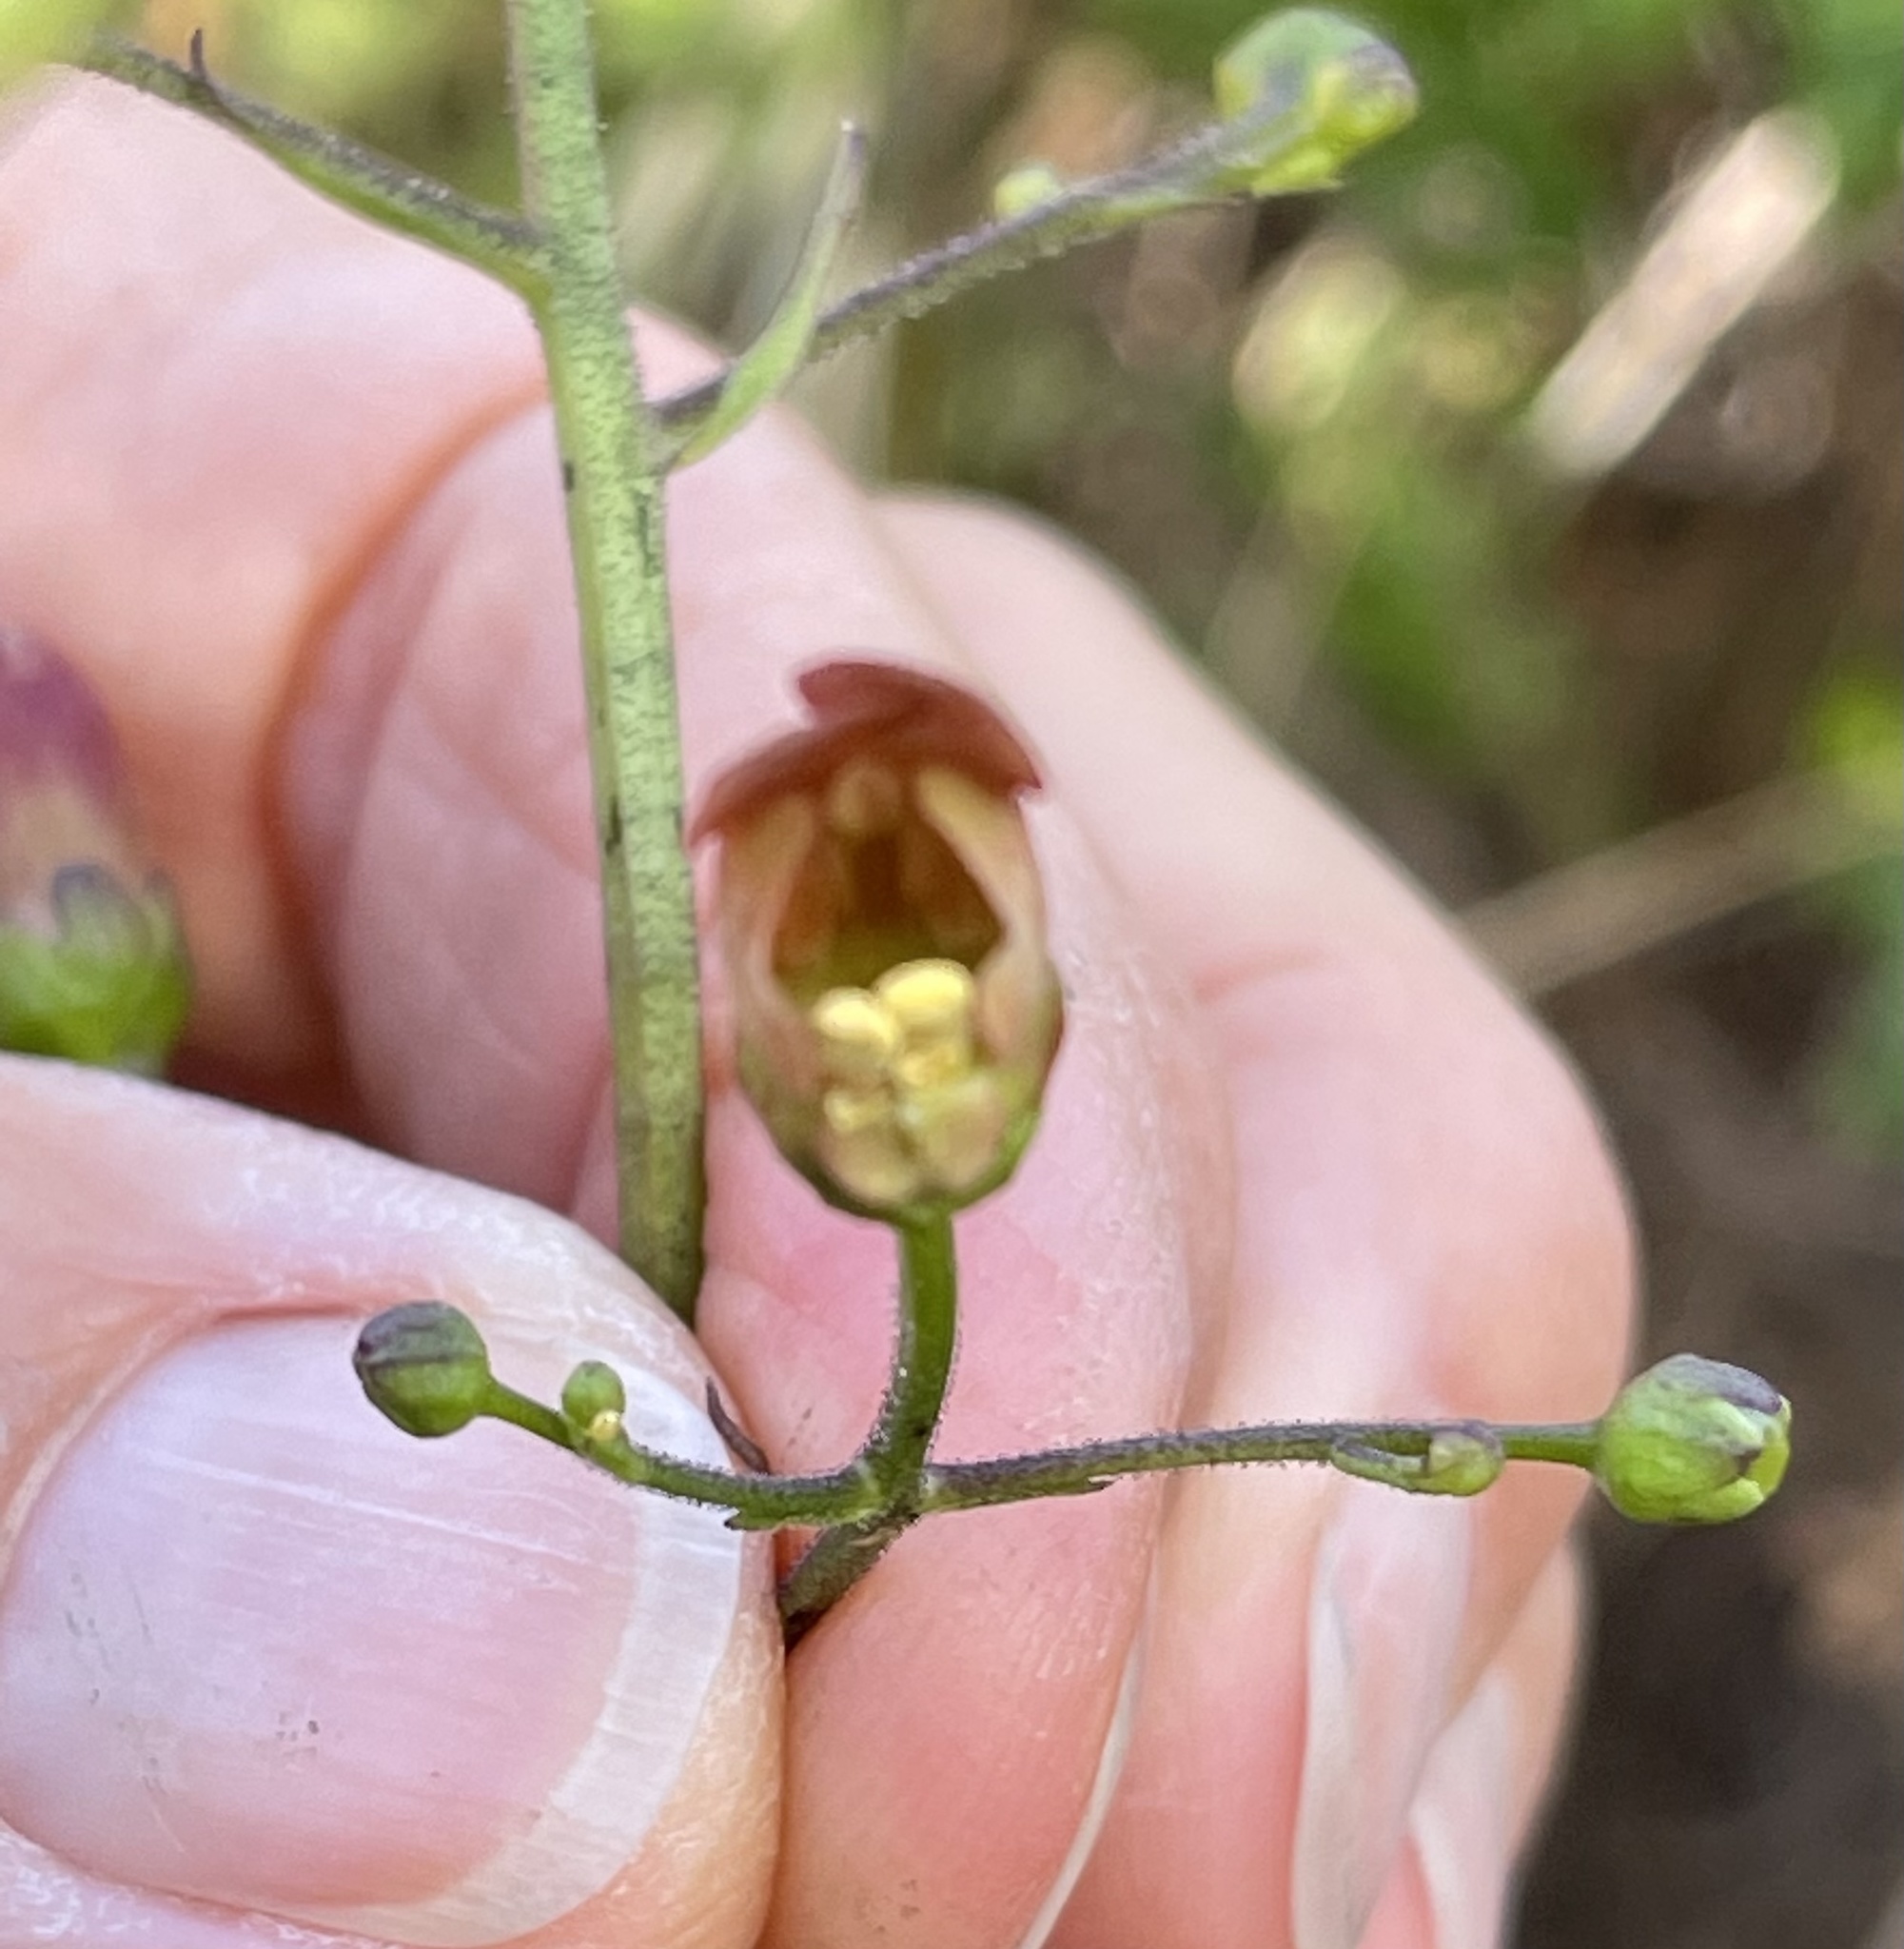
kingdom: Plantae
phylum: Tracheophyta
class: Magnoliopsida
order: Lamiales
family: Scrophulariaceae
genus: Scrophularia
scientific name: Scrophularia californica
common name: California figwort
